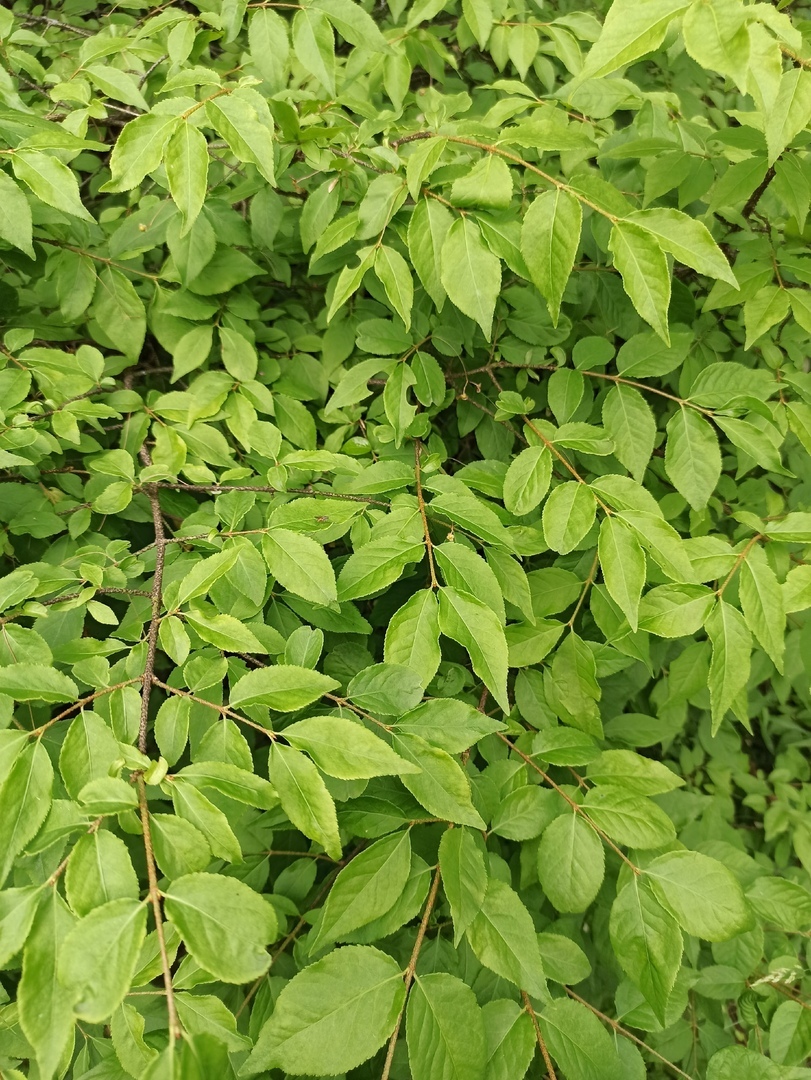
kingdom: Plantae
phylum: Tracheophyta
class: Magnoliopsida
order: Celastrales
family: Celastraceae
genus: Euonymus
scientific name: Euonymus verrucosus
